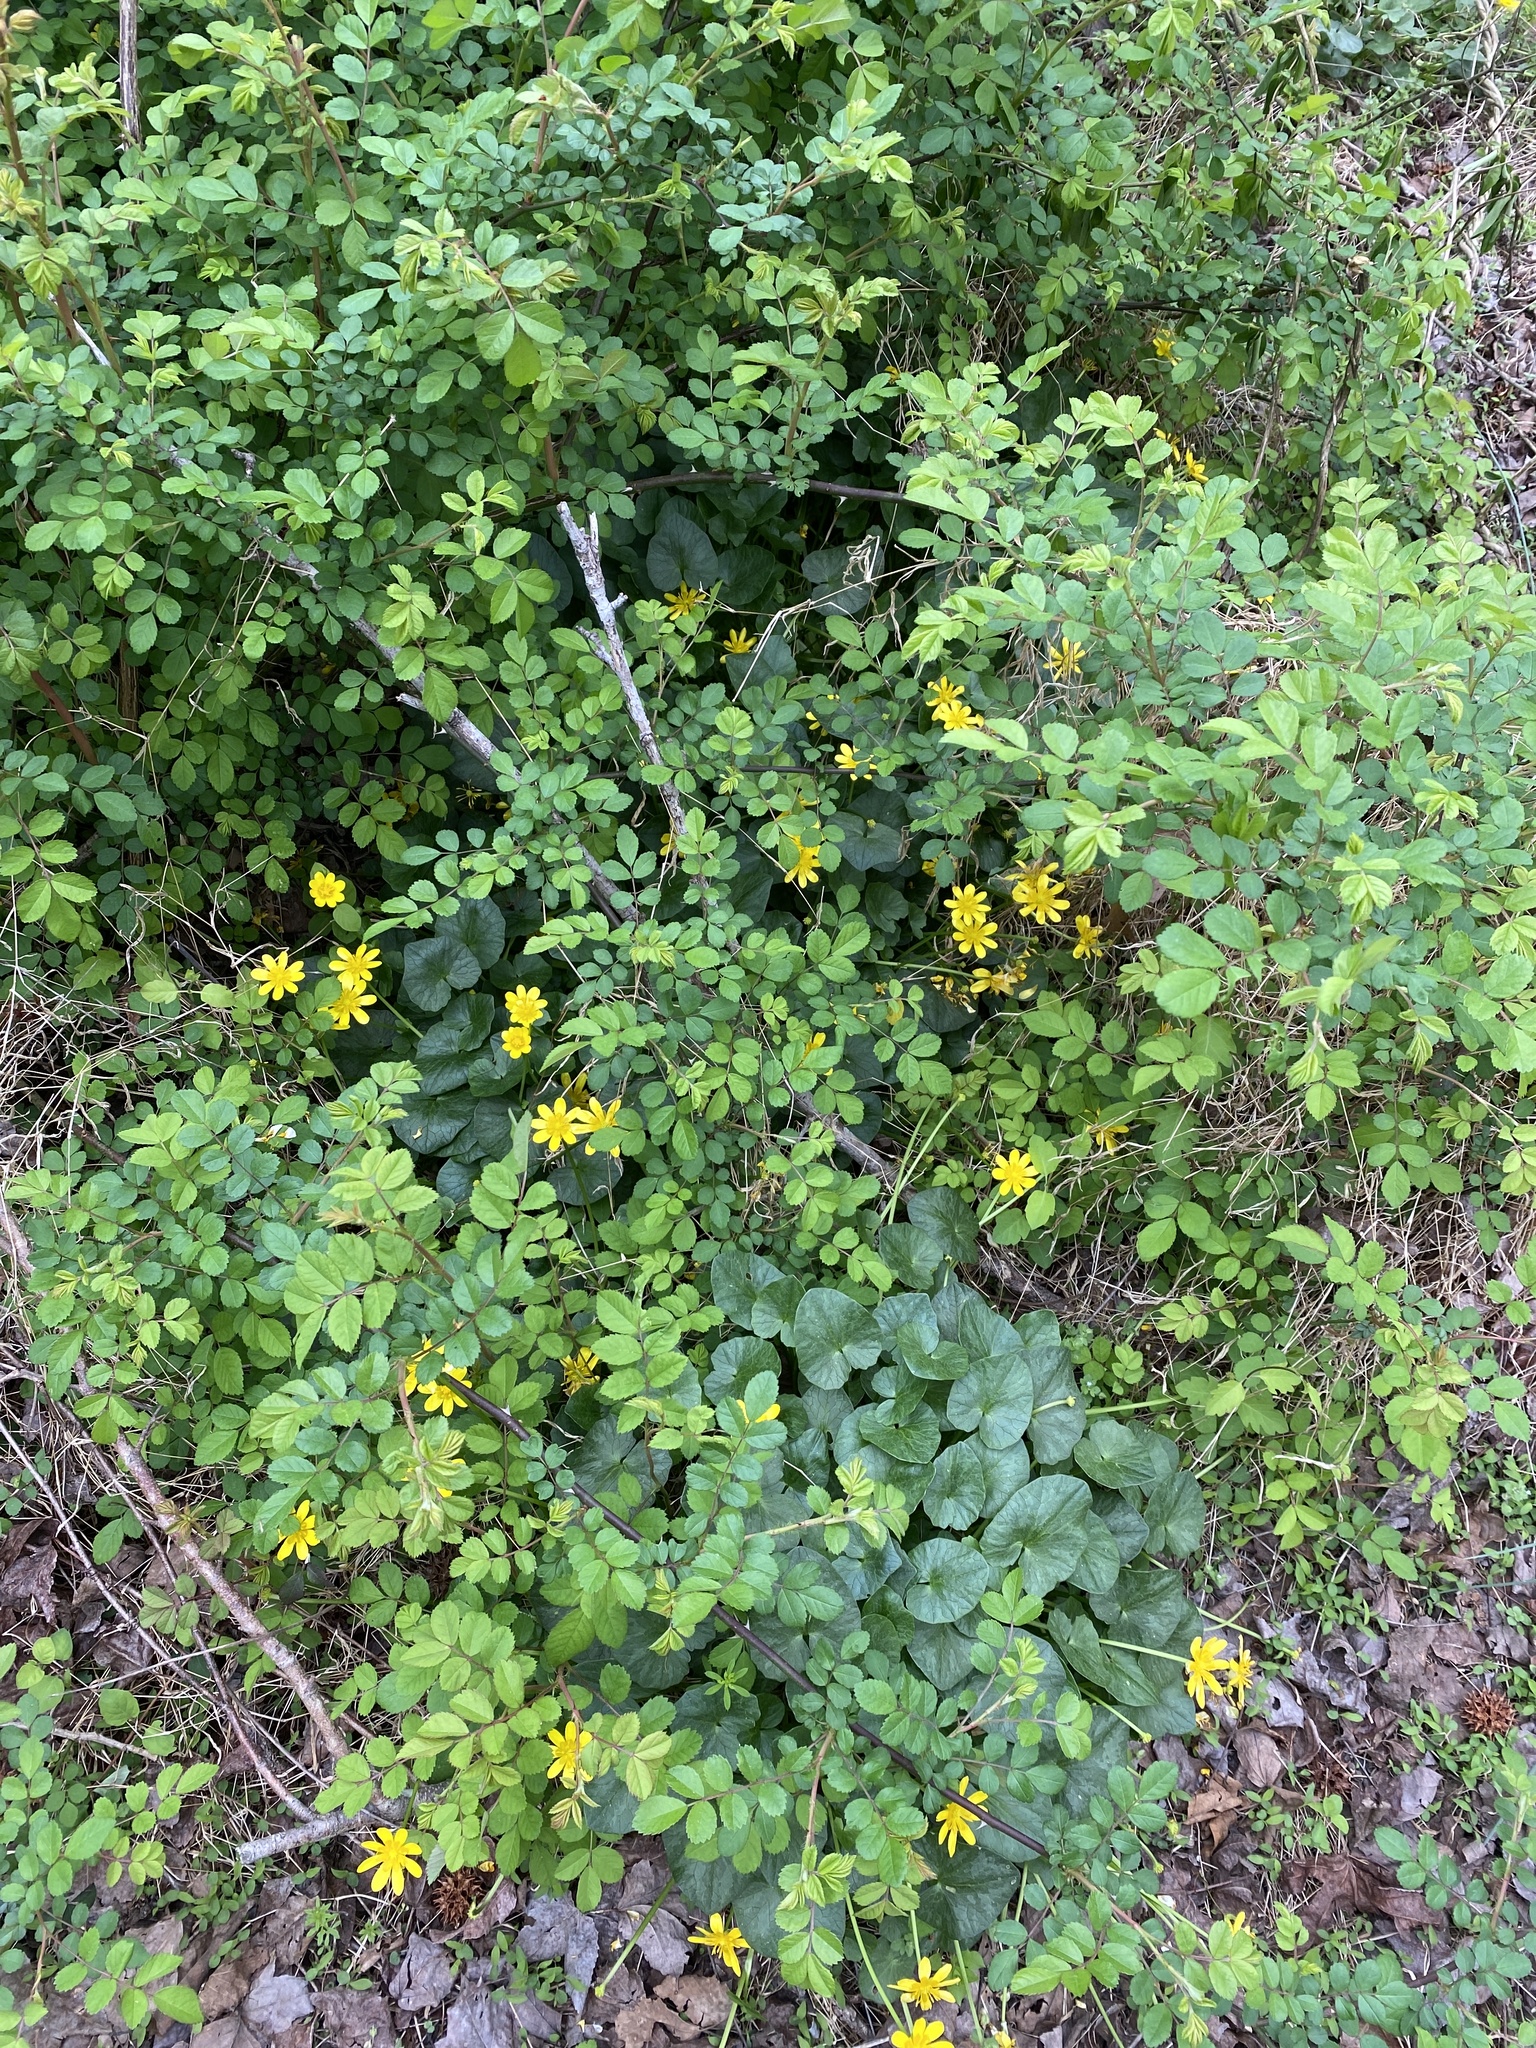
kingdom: Plantae
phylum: Tracheophyta
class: Magnoliopsida
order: Ranunculales
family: Ranunculaceae
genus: Ficaria
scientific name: Ficaria verna
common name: Lesser celandine
